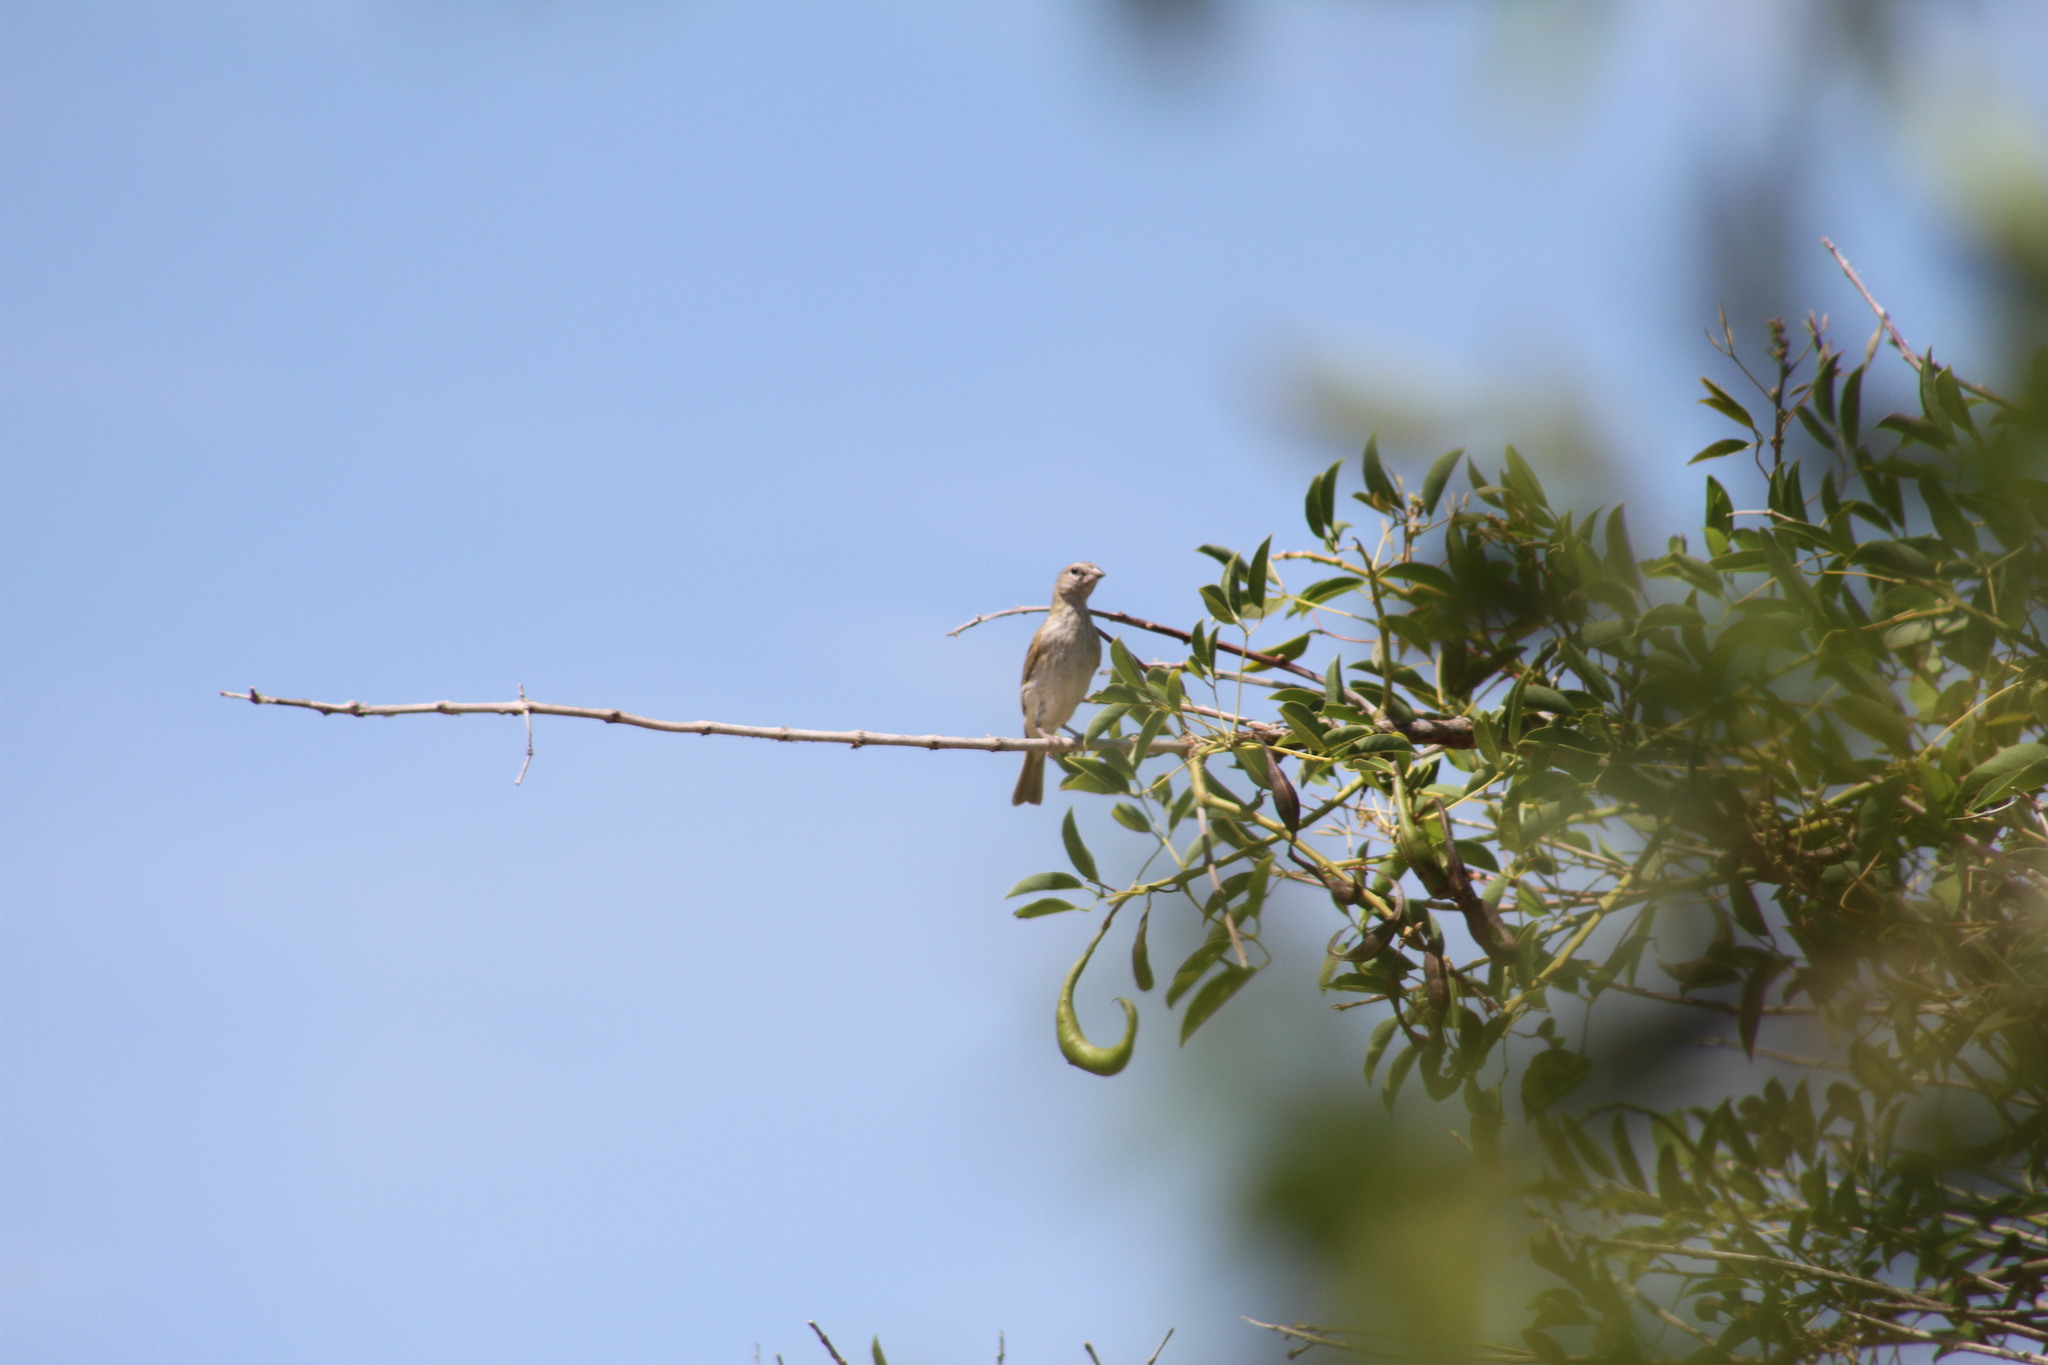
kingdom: Animalia
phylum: Chordata
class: Aves
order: Passeriformes
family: Thraupidae
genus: Sicalis
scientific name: Sicalis flaveola
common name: Saffron finch
